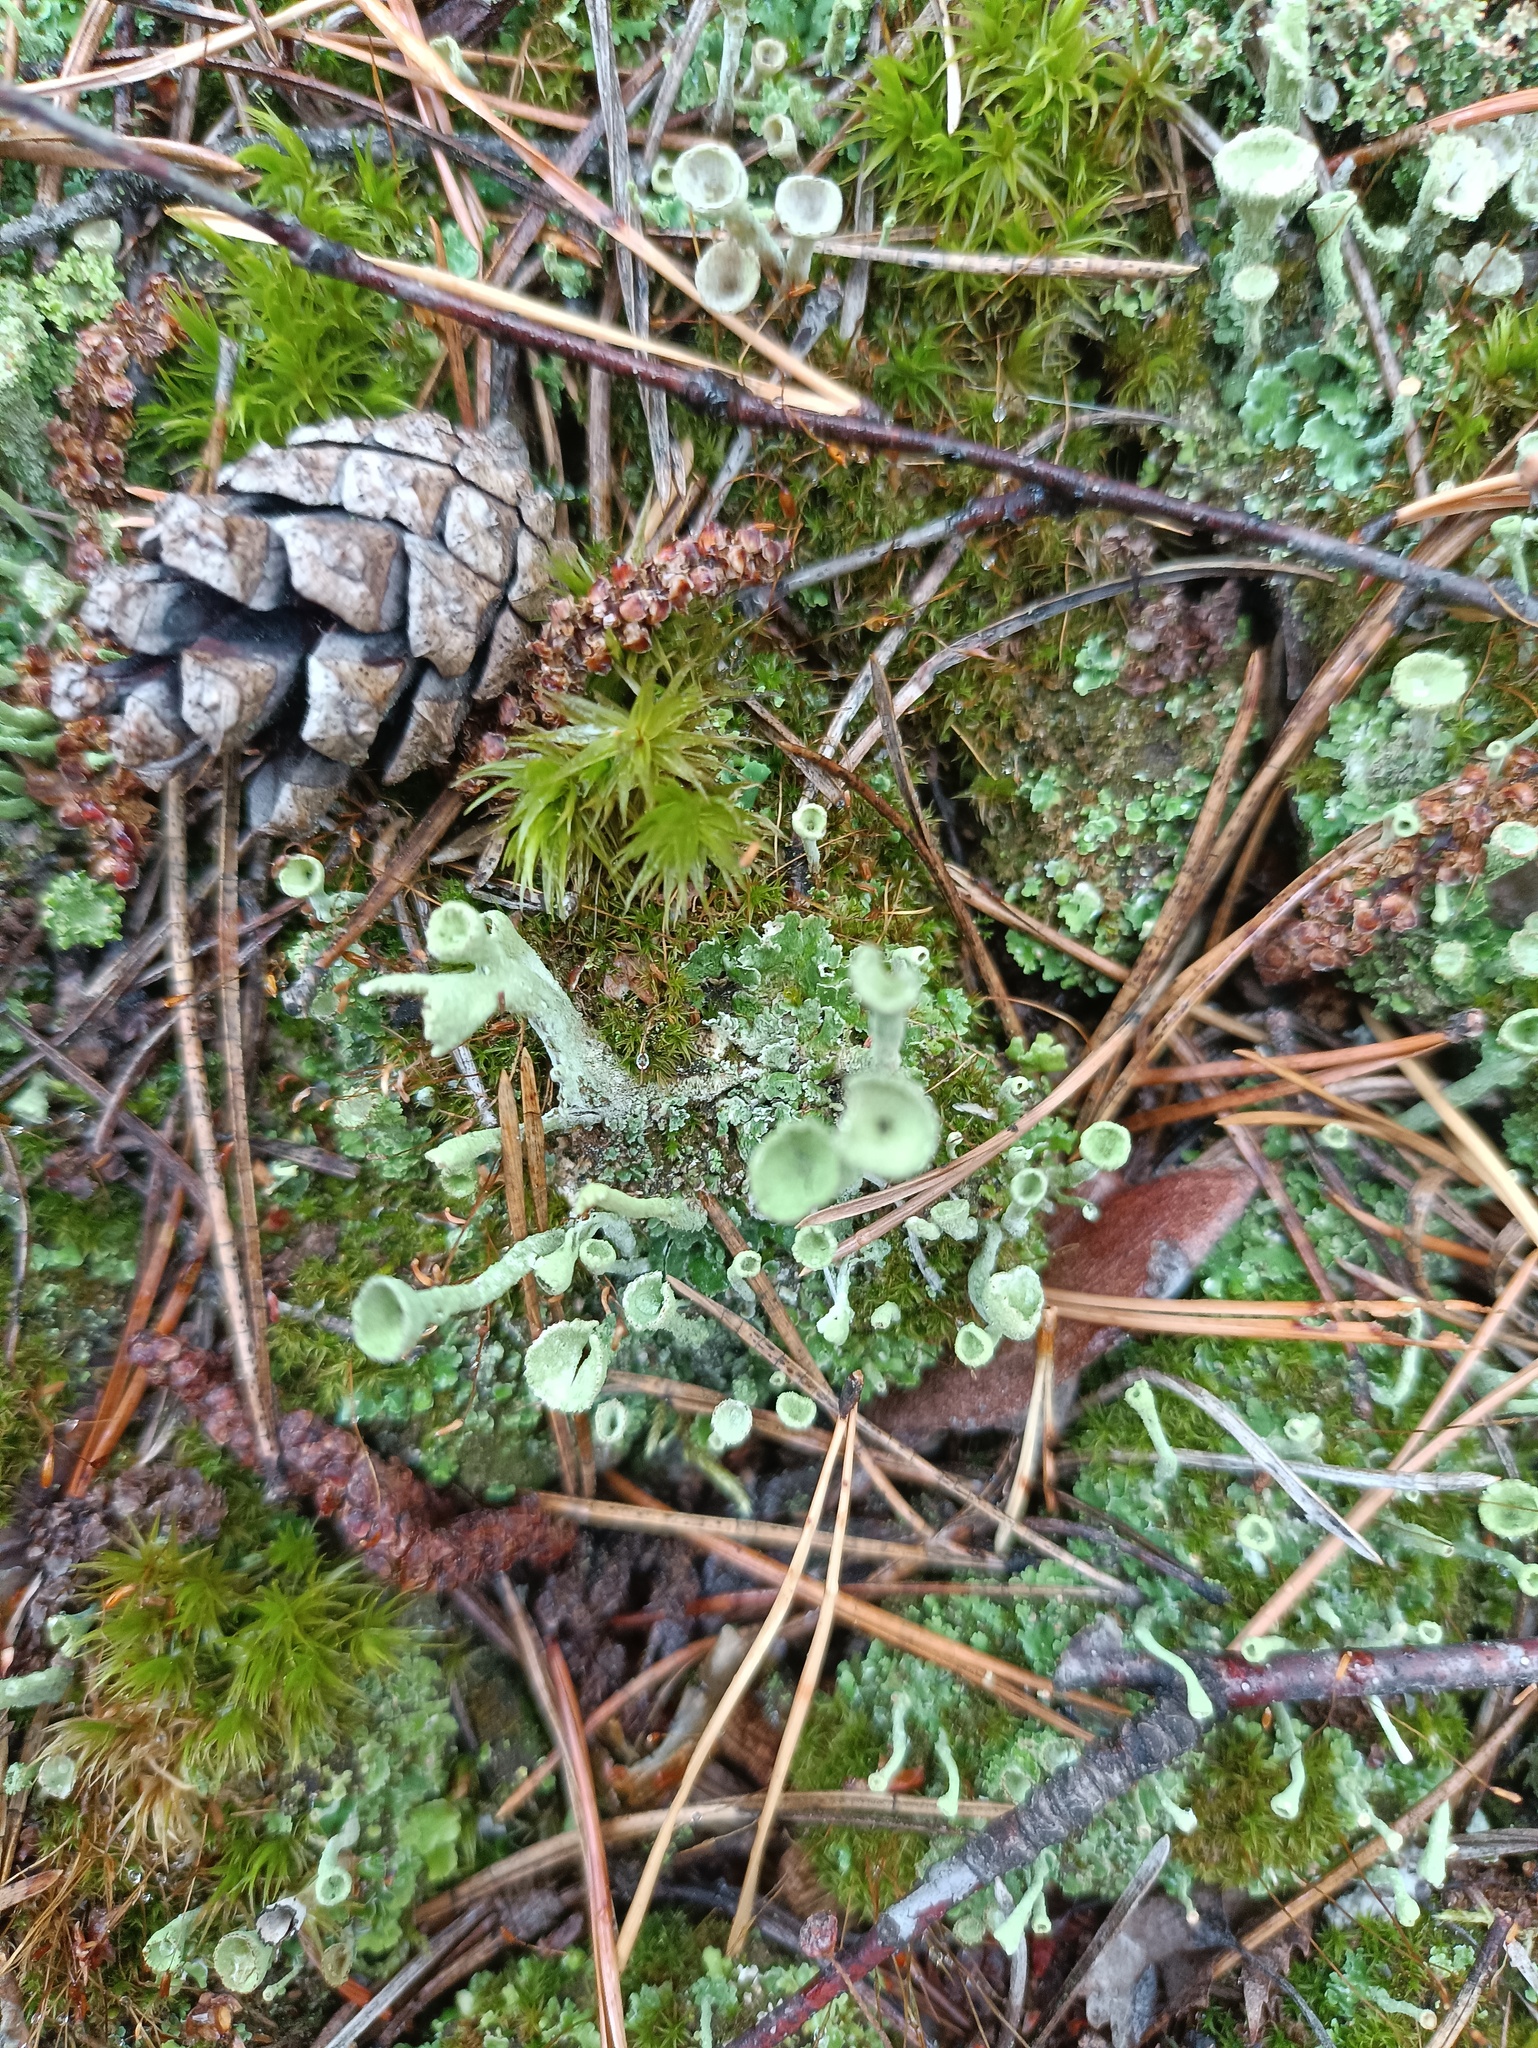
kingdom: Fungi
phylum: Ascomycota
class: Lecanoromycetes
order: Lecanorales
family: Cladoniaceae
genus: Cladonia
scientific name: Cladonia fimbriata
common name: Powdered trumpet lichen
